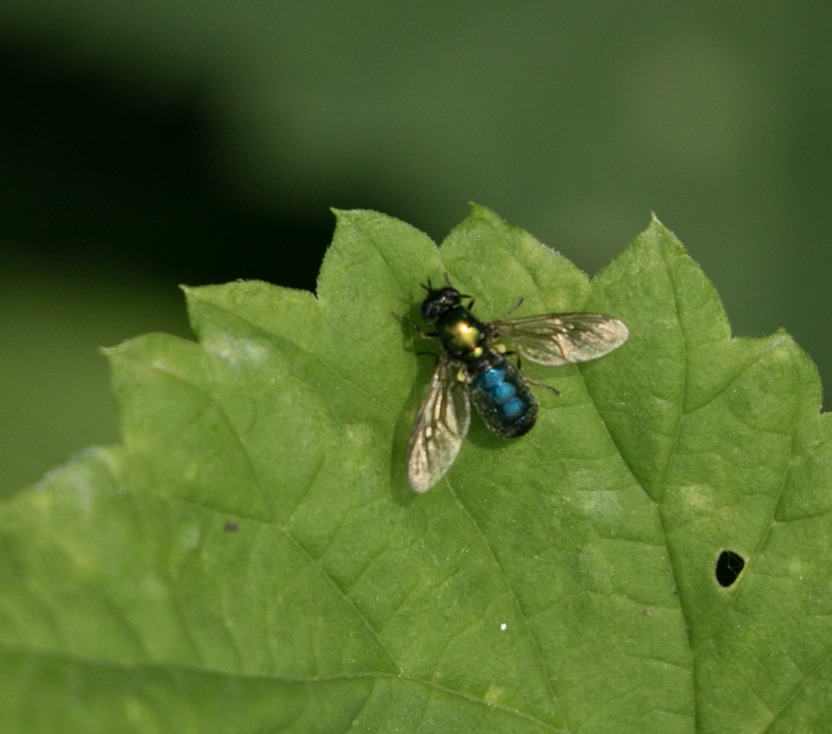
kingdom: Animalia
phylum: Arthropoda
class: Insecta
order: Diptera
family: Stratiomyidae
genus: Chloromyia
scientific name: Chloromyia formosa
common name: Soldier fly
